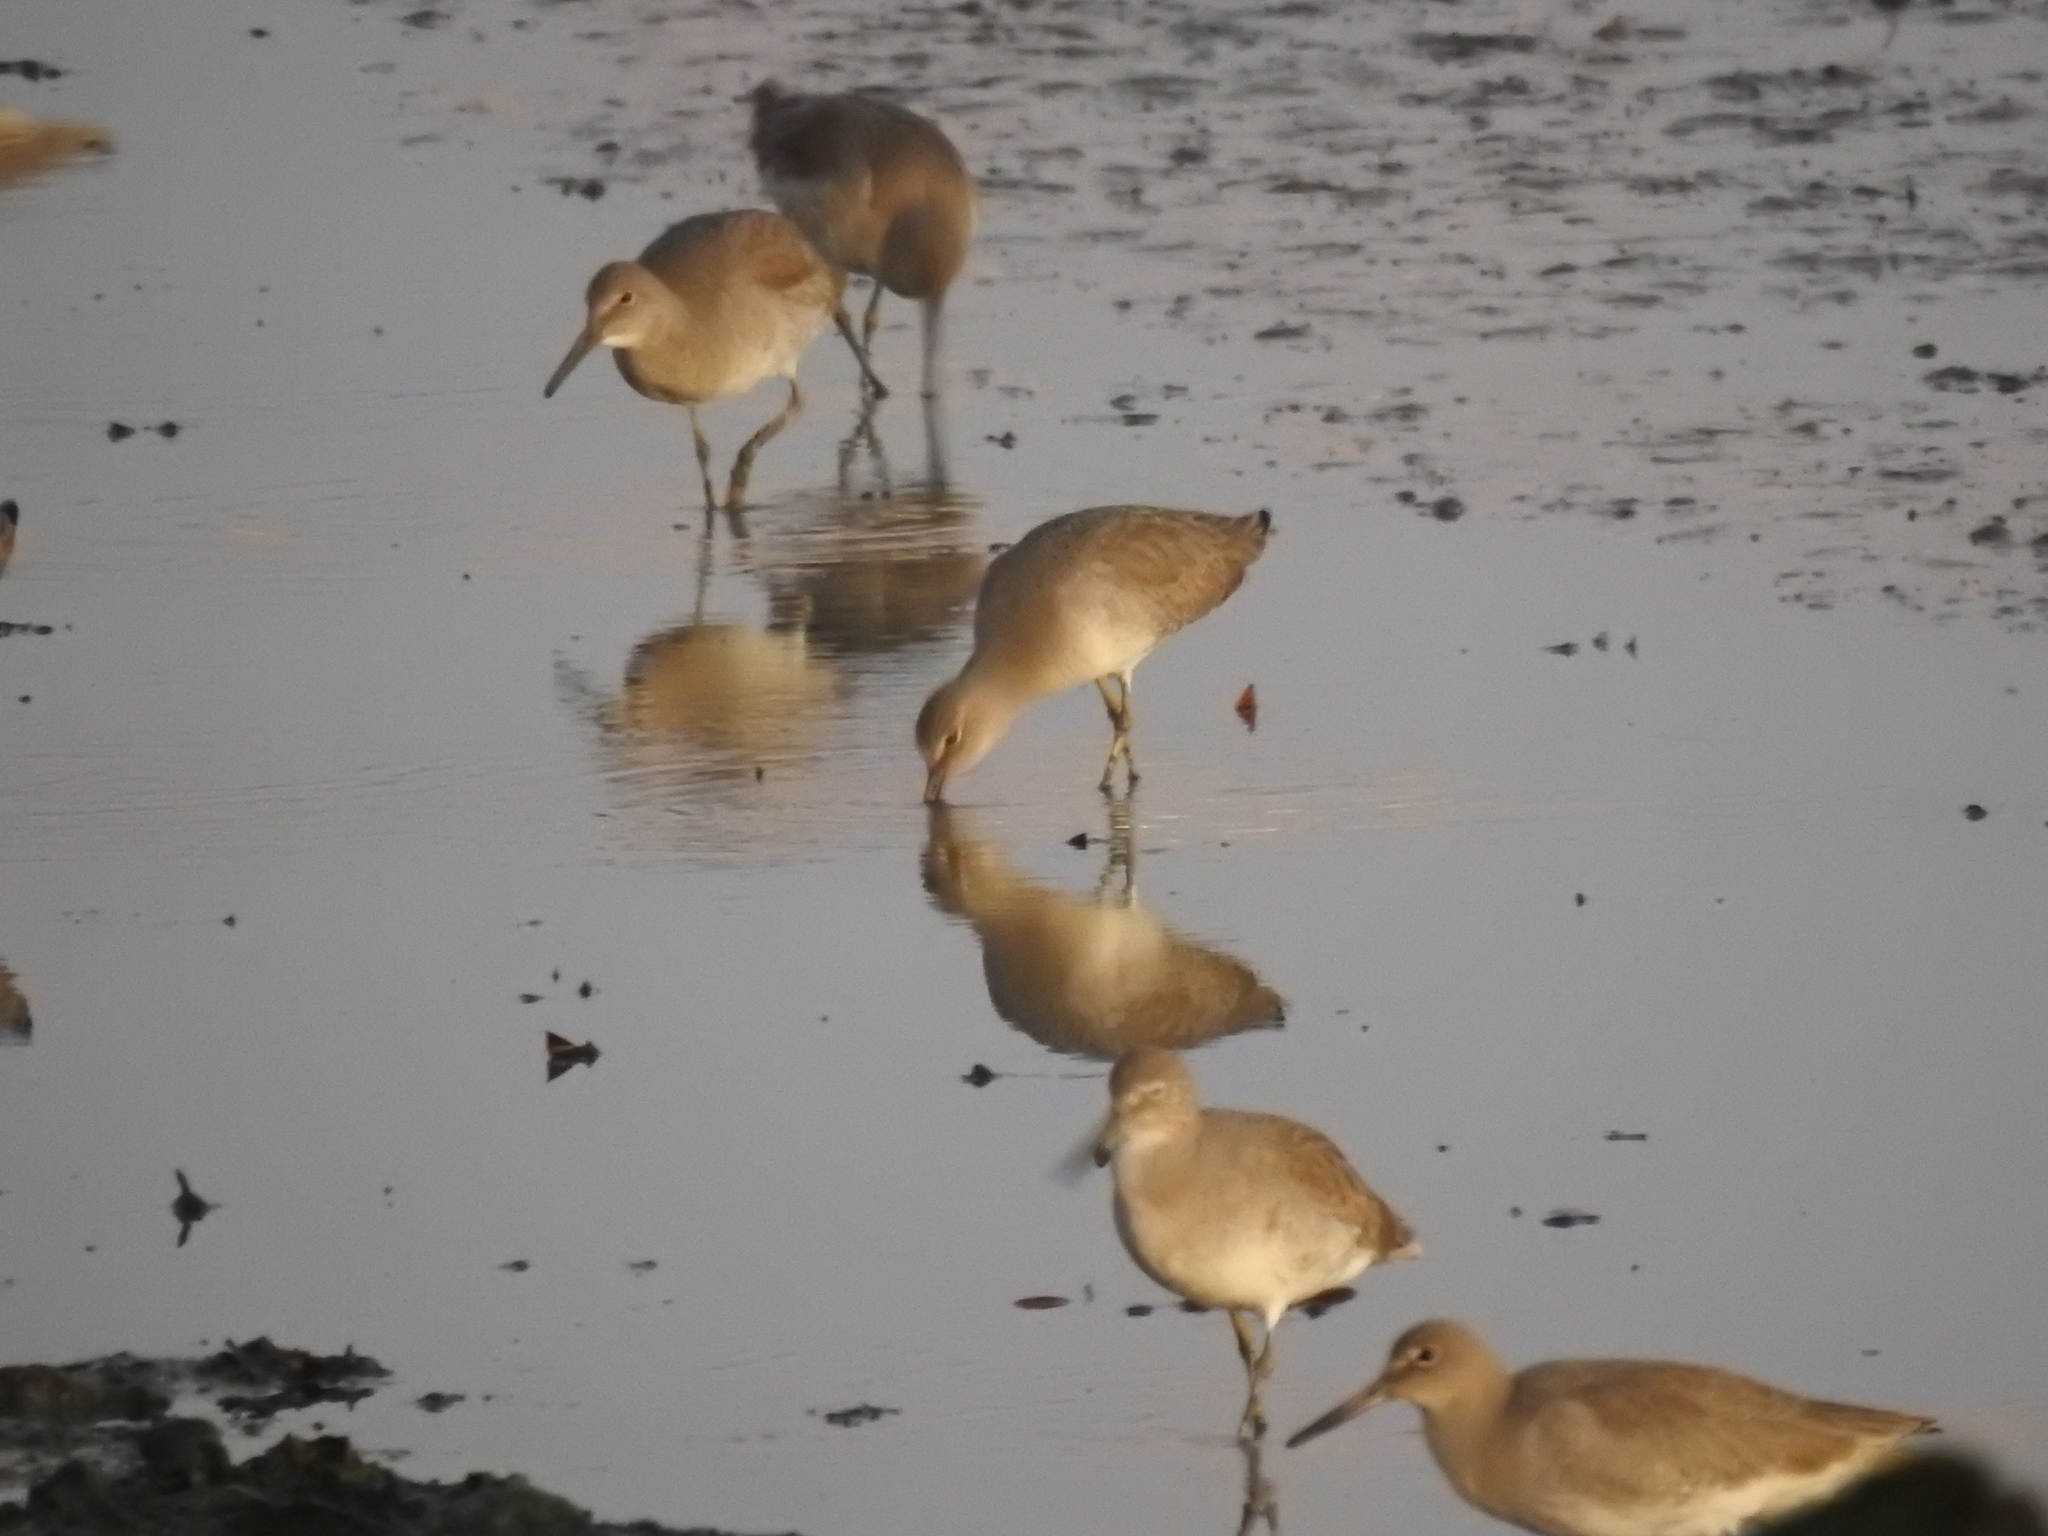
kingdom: Animalia
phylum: Chordata
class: Aves
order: Charadriiformes
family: Scolopacidae
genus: Tringa
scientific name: Tringa semipalmata
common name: Willet
